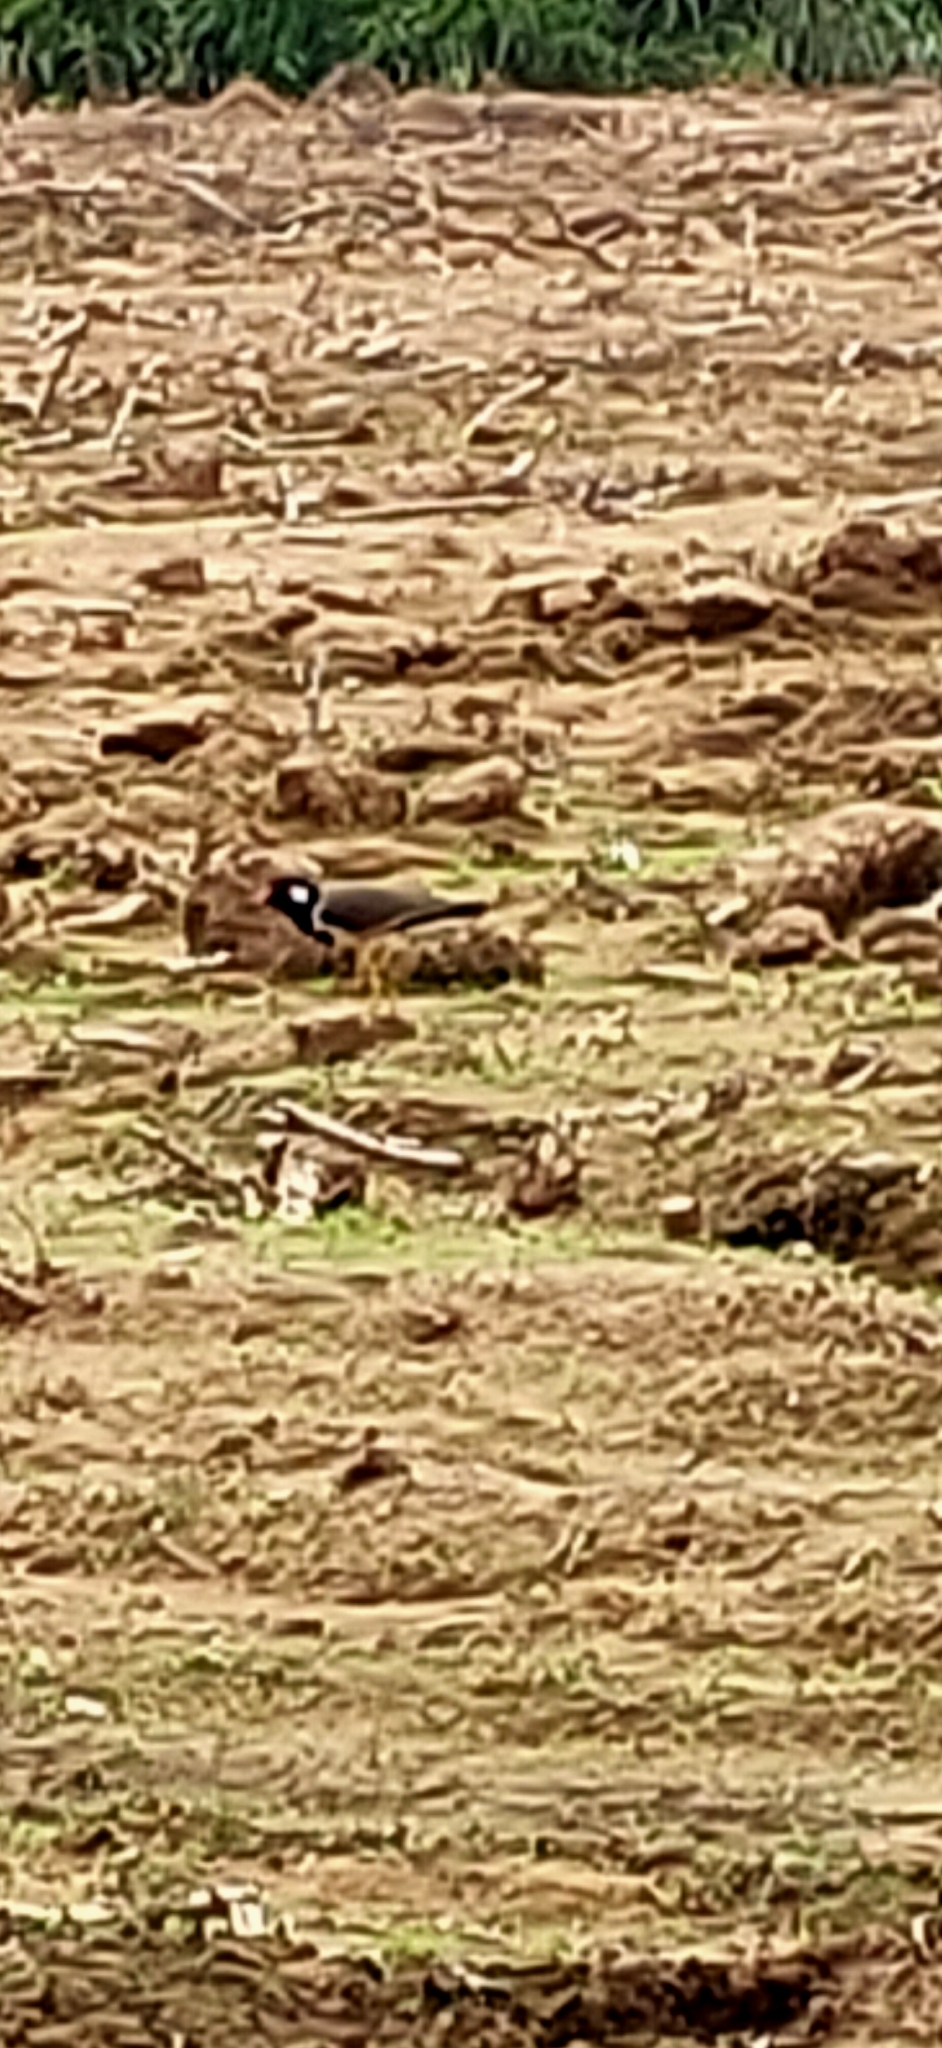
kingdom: Animalia
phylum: Chordata
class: Aves
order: Charadriiformes
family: Charadriidae
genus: Vanellus
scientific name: Vanellus indicus
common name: Red-wattled lapwing
